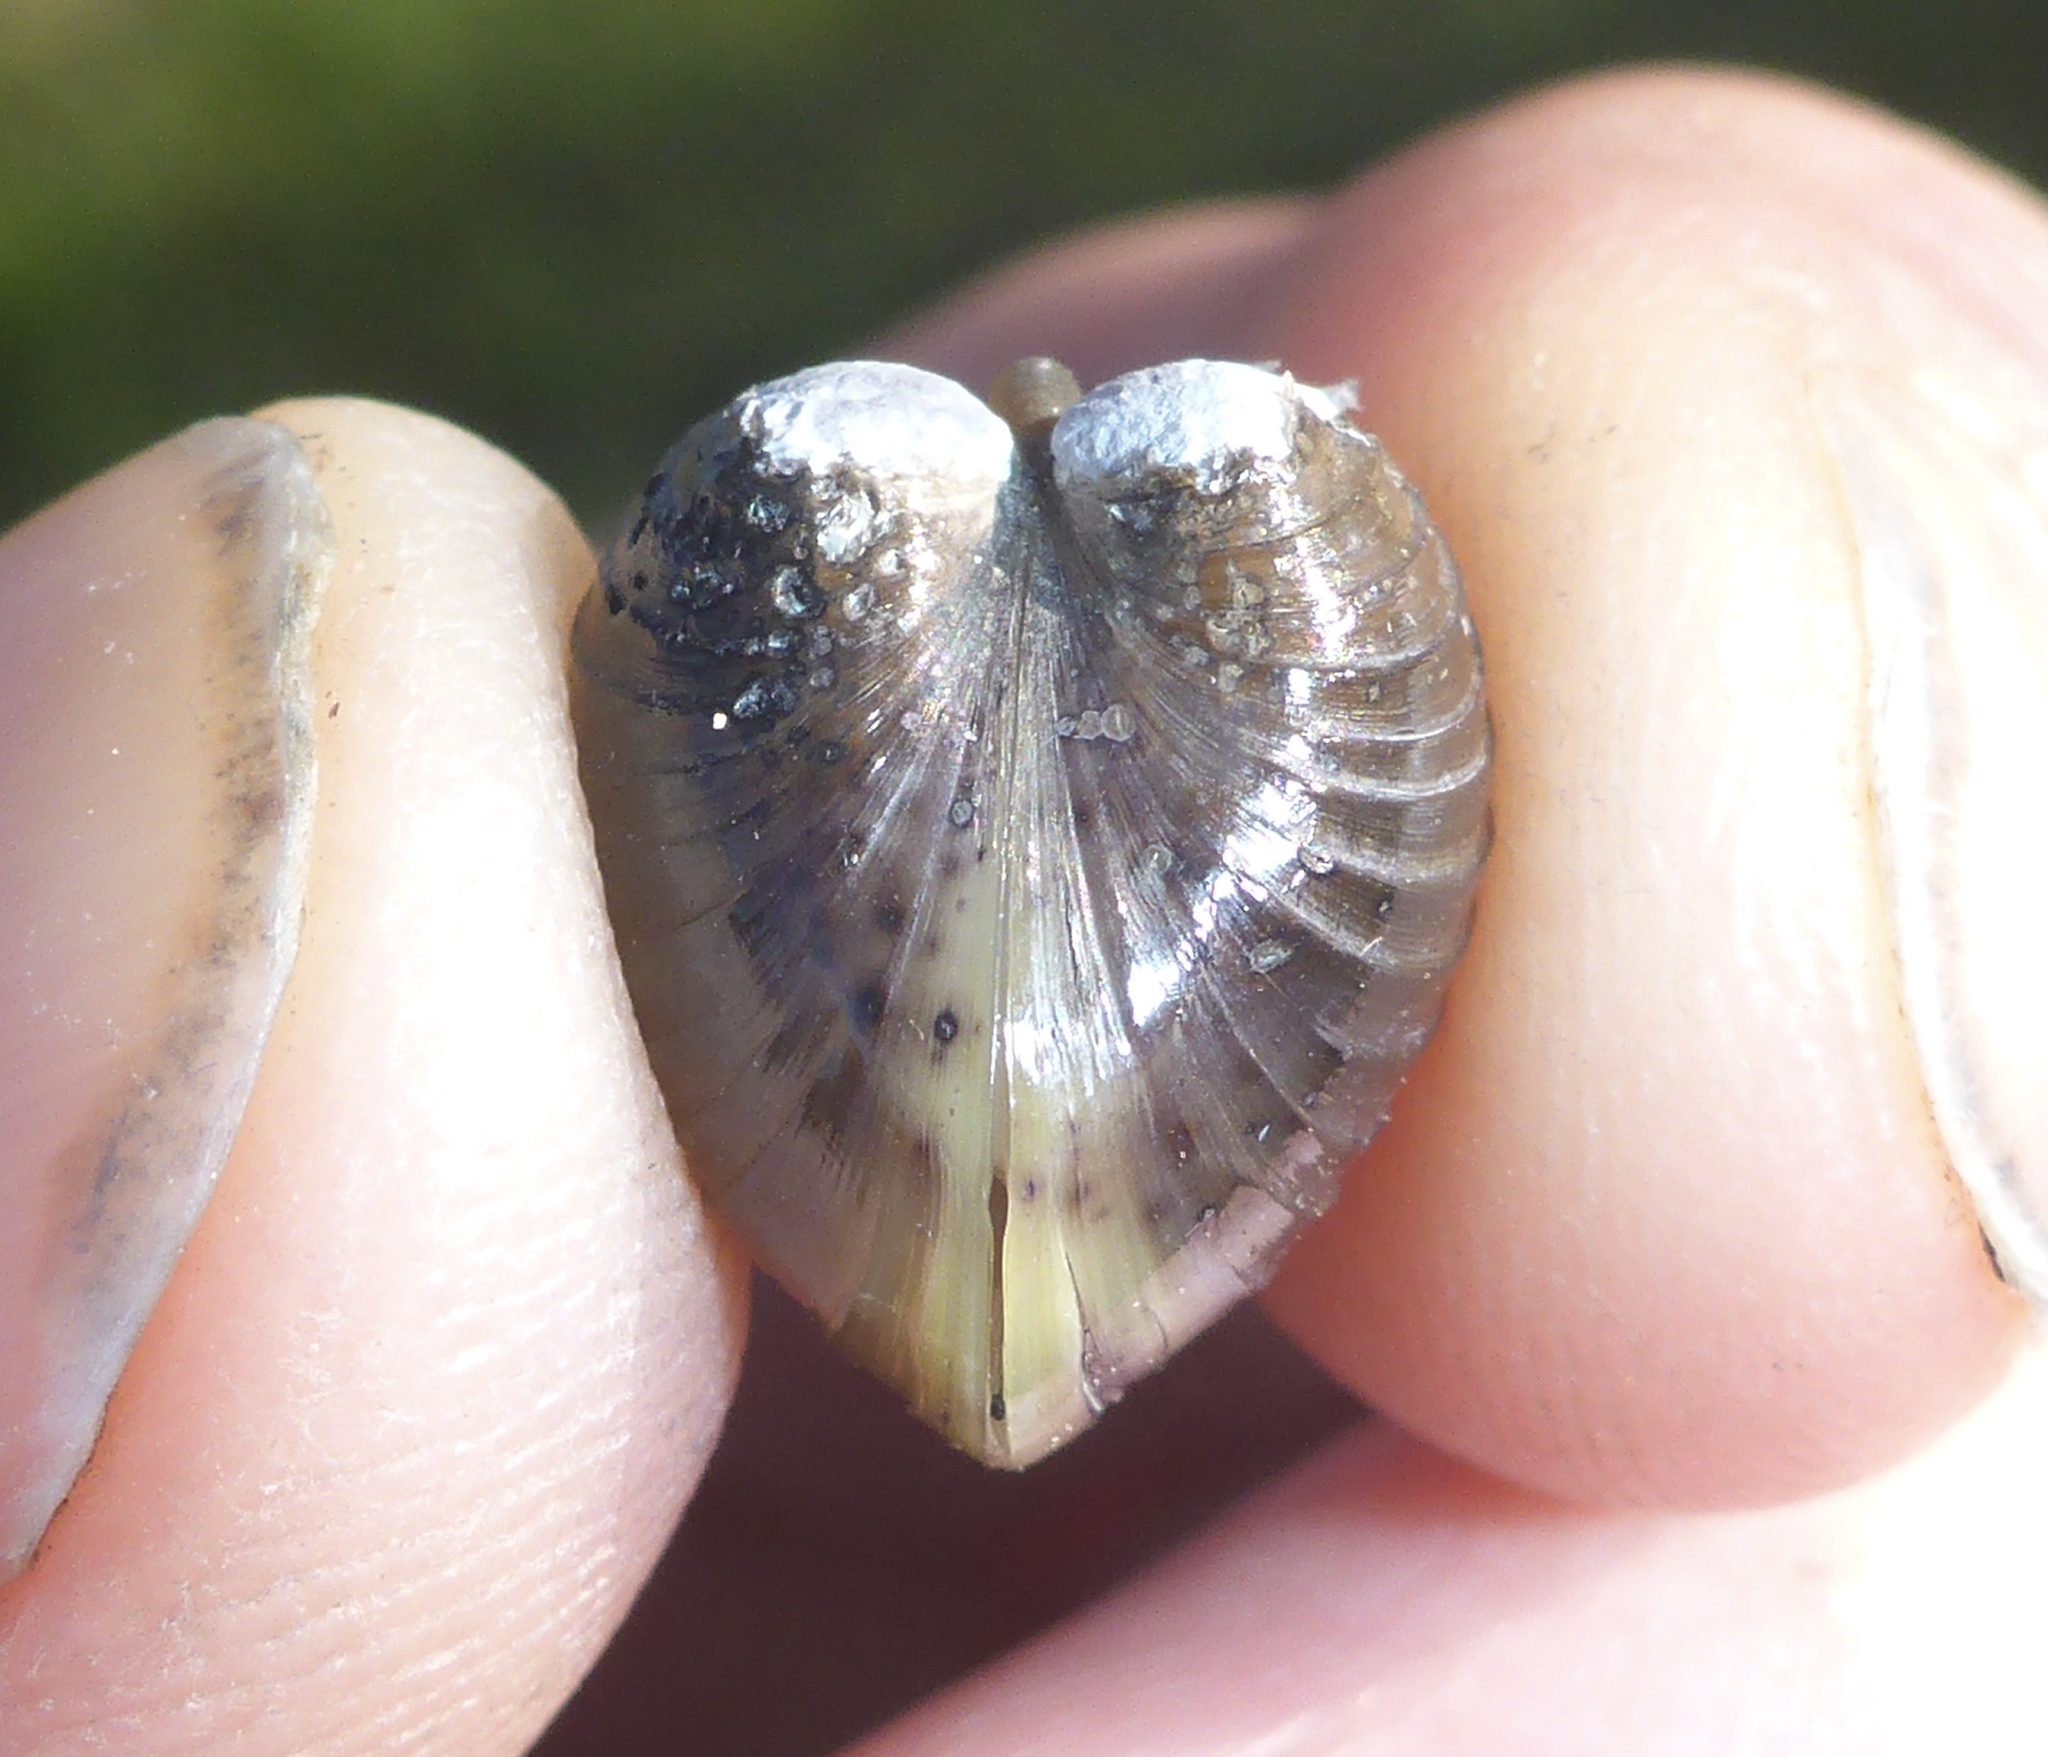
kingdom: Animalia
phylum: Mollusca
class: Bivalvia
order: Venerida
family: Cyrenidae
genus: Corbicula
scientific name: Corbicula fluminea
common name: Asian clam
